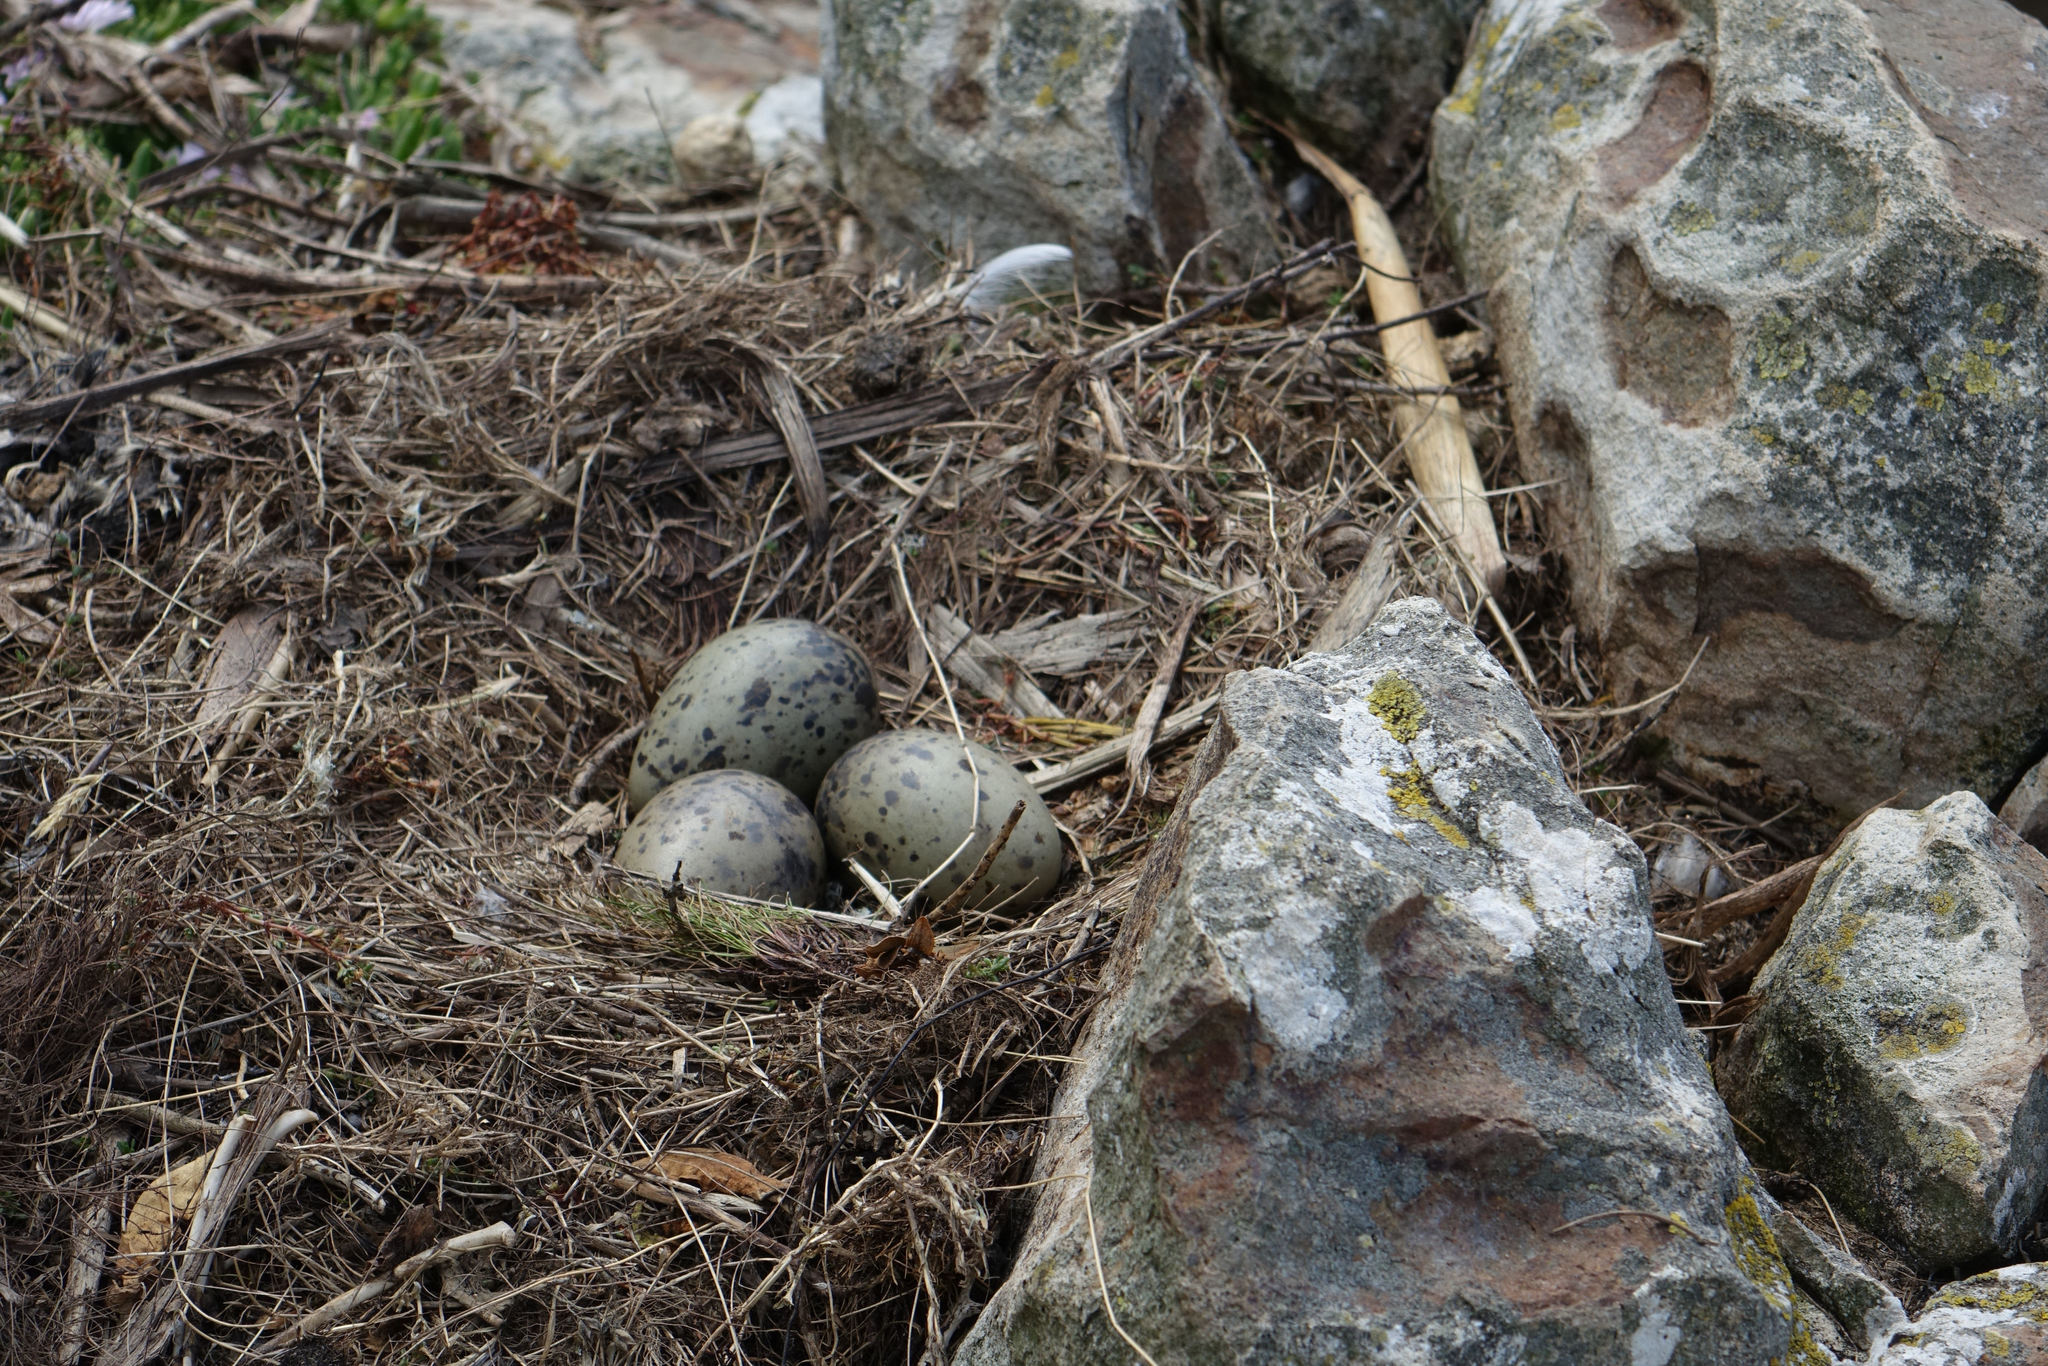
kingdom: Animalia
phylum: Chordata
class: Aves
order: Charadriiformes
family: Laridae
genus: Larus
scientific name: Larus dominicanus
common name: Kelp gull
